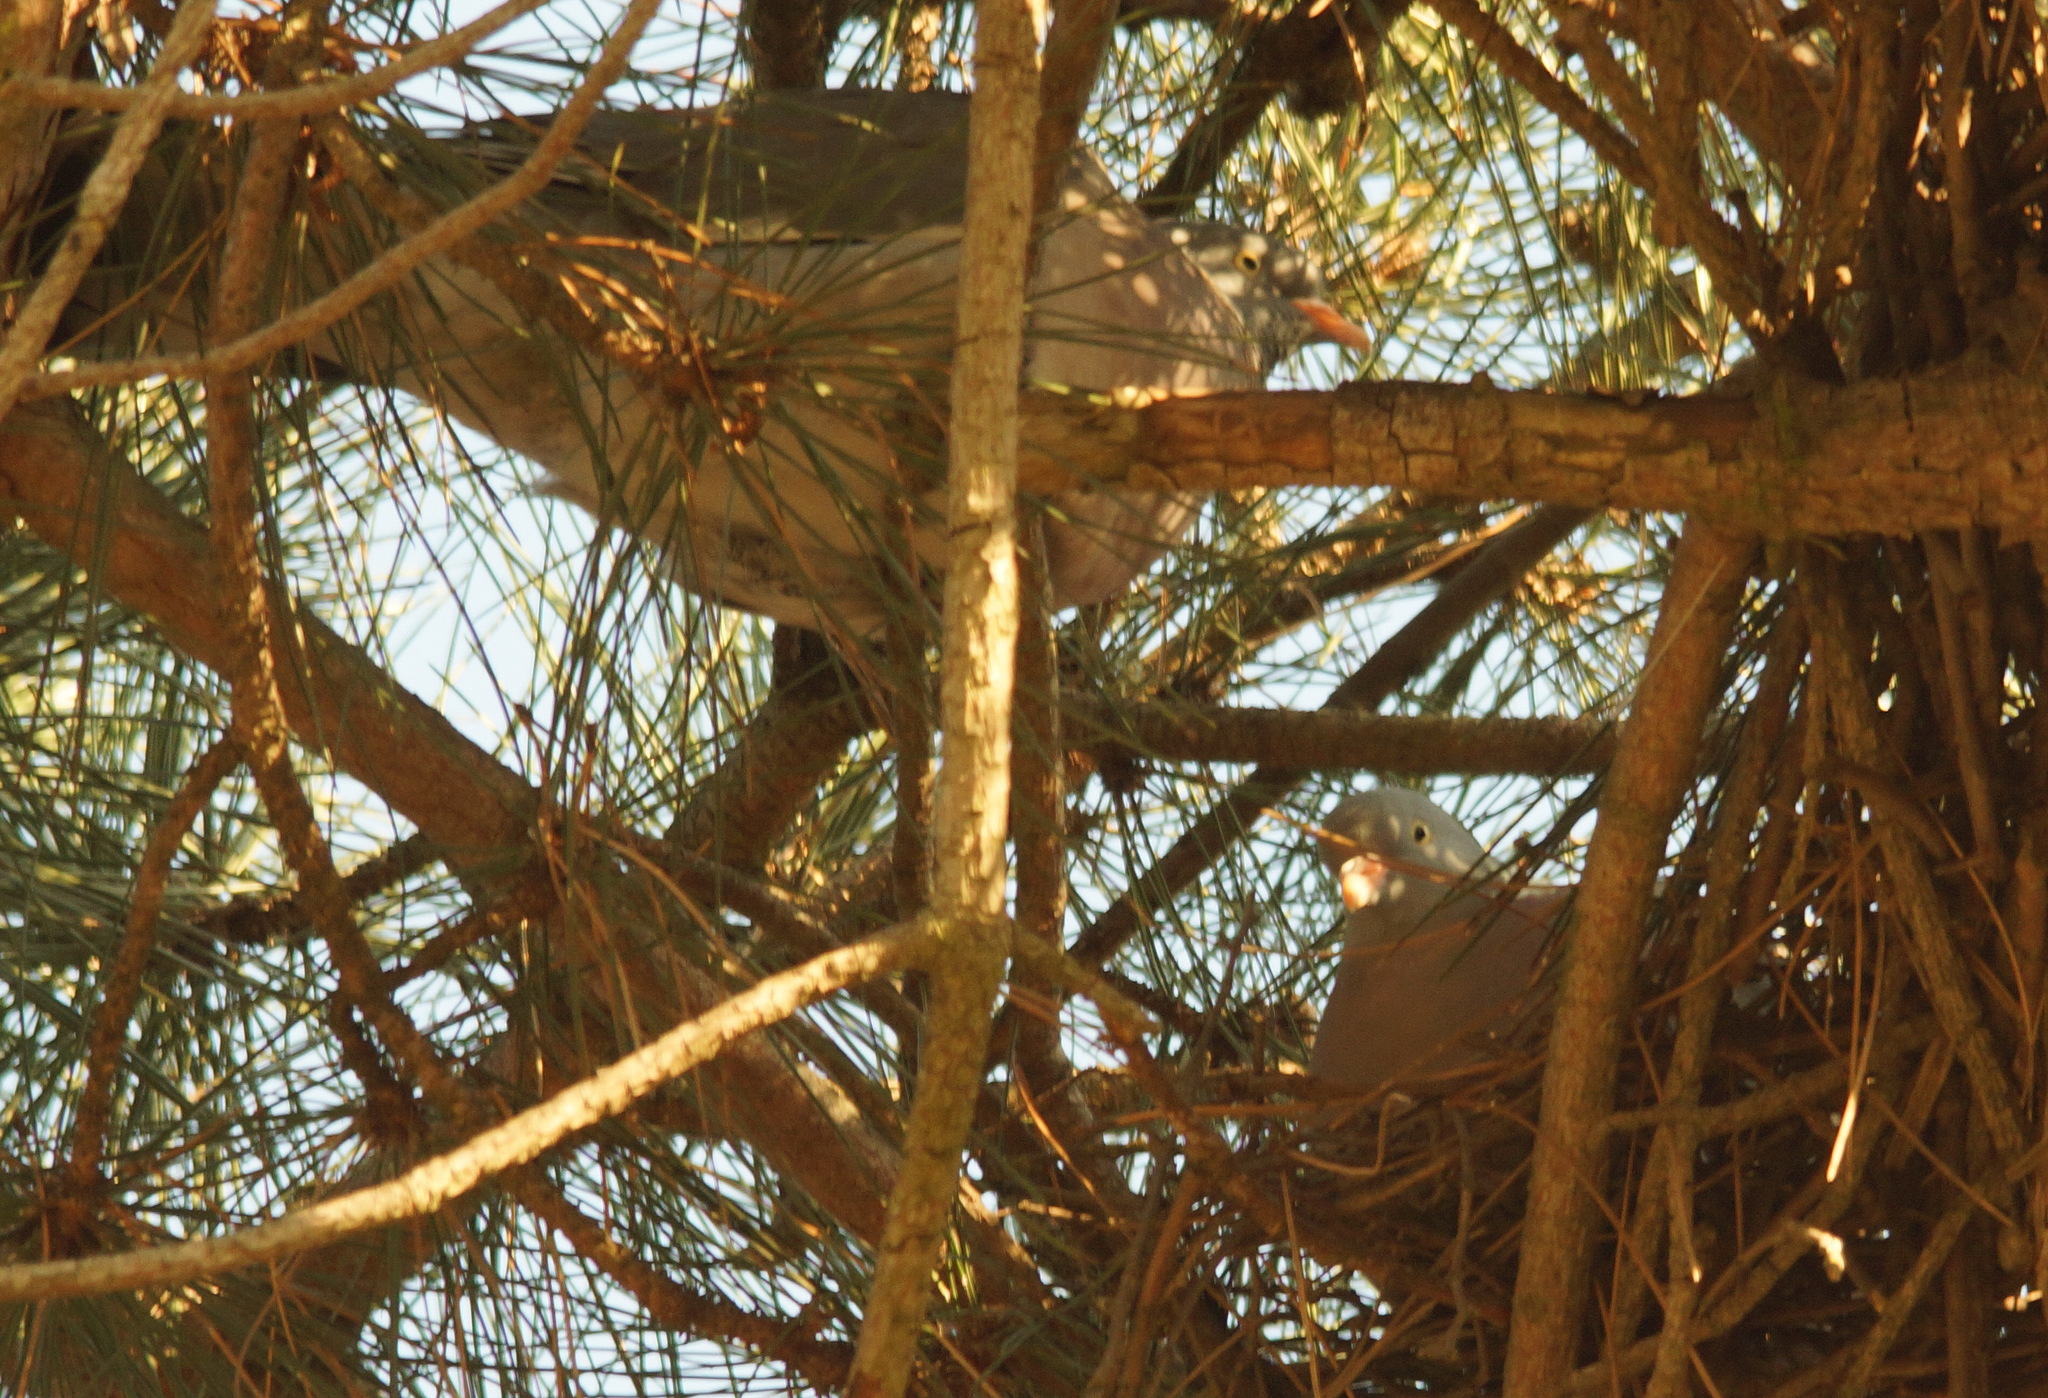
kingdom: Animalia
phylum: Chordata
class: Aves
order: Columbiformes
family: Columbidae
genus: Columba
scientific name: Columba palumbus
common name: Common wood pigeon
